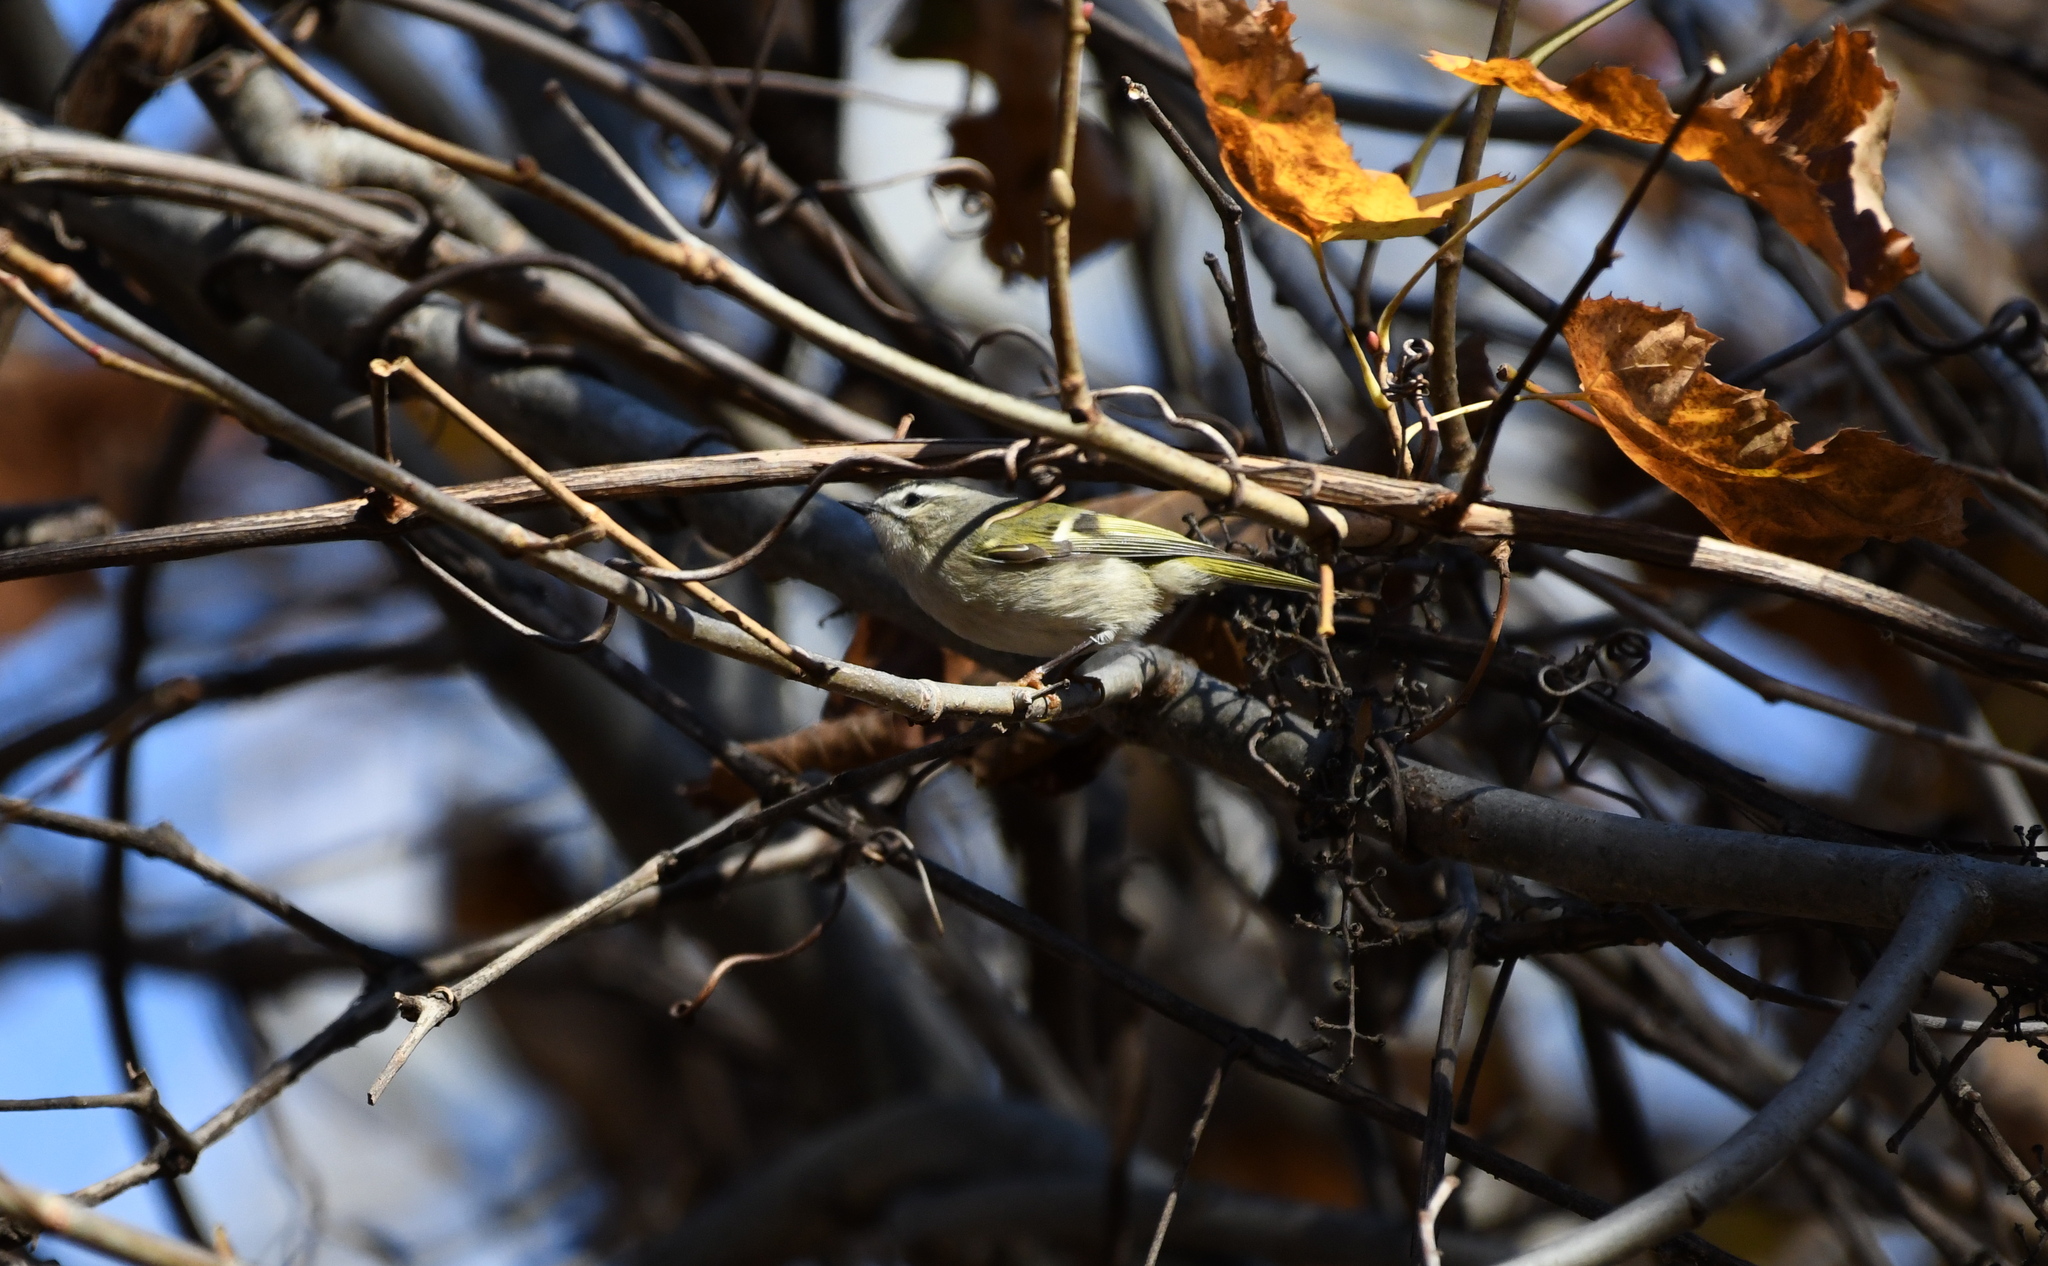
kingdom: Animalia
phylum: Chordata
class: Aves
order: Passeriformes
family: Regulidae
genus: Regulus
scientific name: Regulus satrapa
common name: Golden-crowned kinglet
